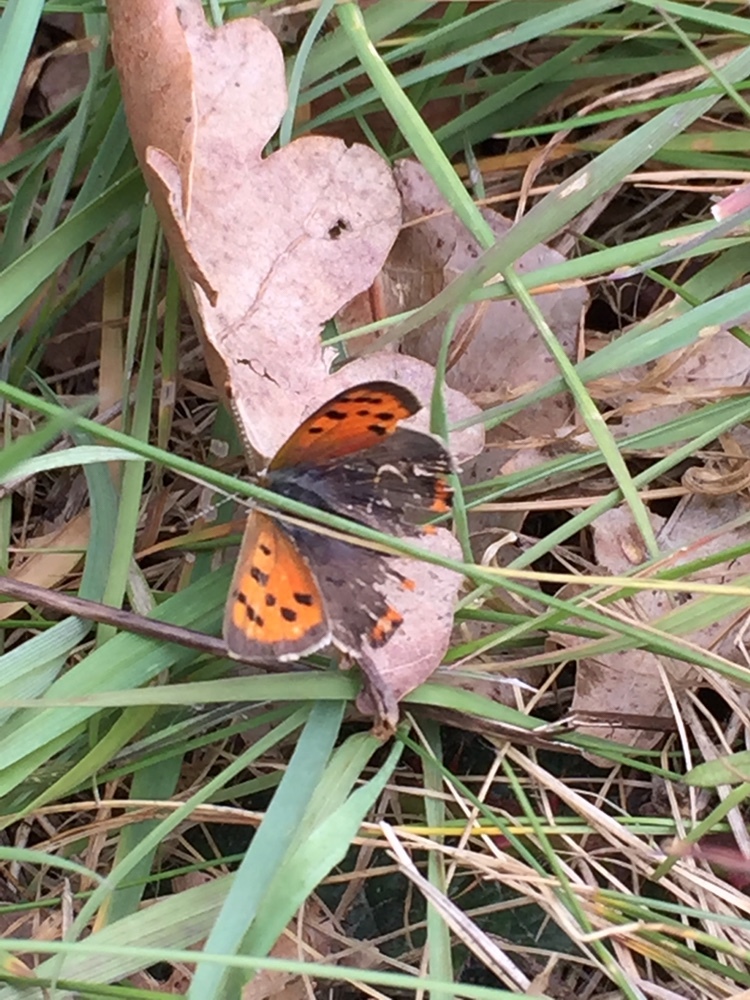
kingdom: Animalia
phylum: Arthropoda
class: Insecta
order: Lepidoptera
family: Lycaenidae
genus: Lycaena
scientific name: Lycaena phlaeas
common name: Small copper
